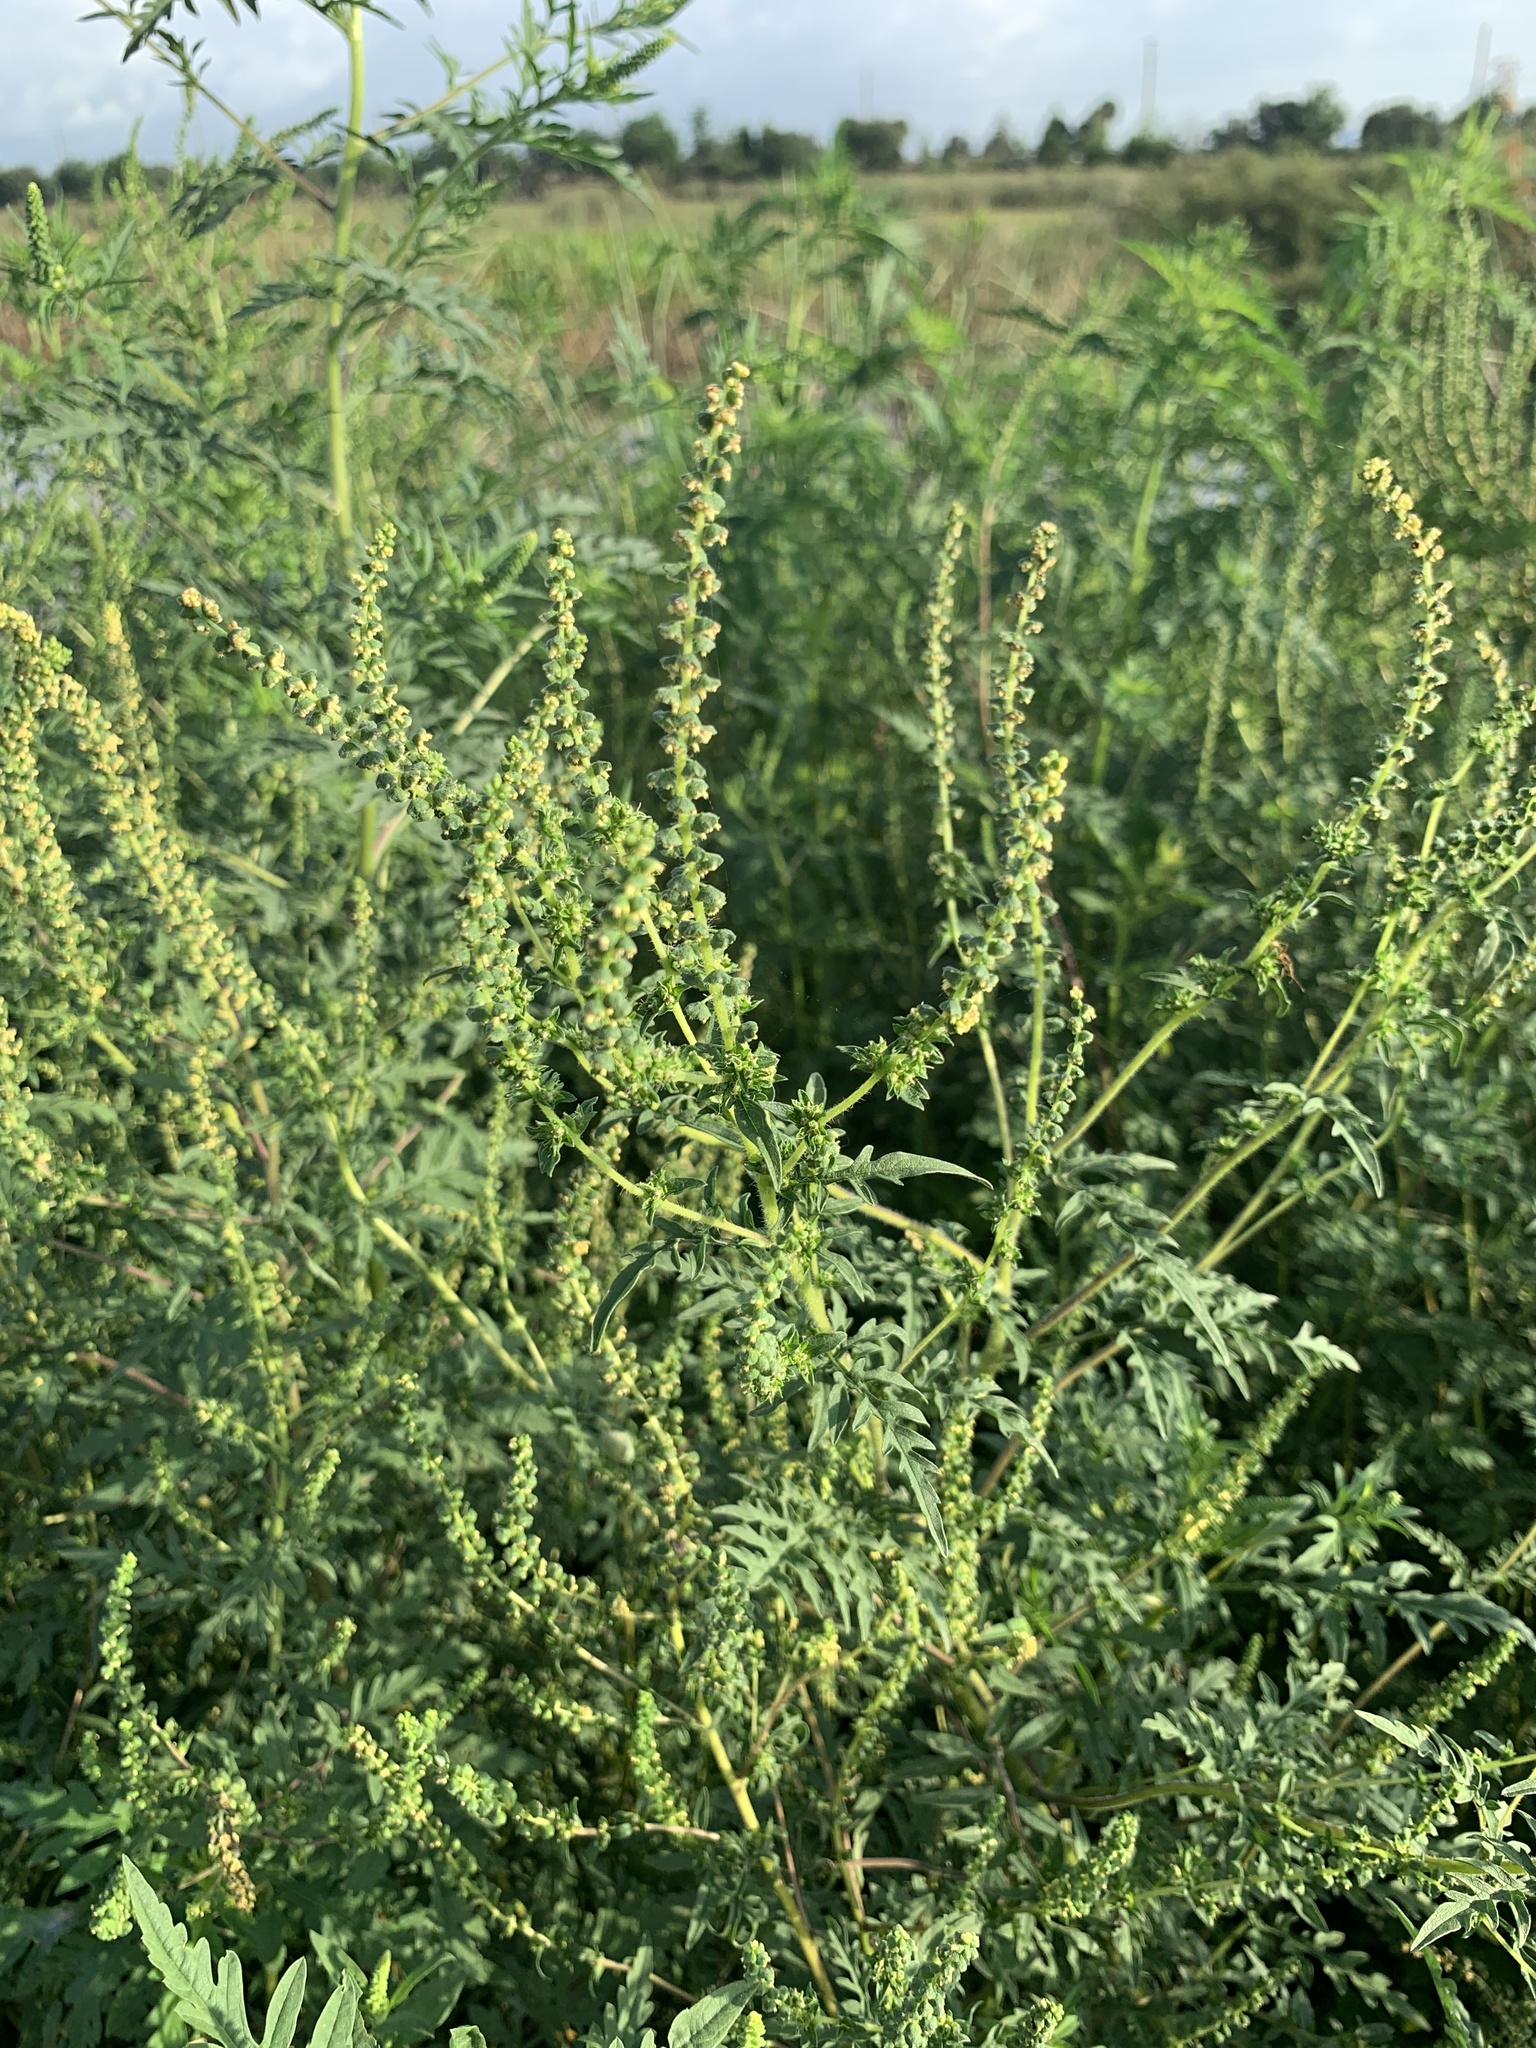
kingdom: Plantae
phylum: Tracheophyta
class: Magnoliopsida
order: Asterales
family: Asteraceae
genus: Ambrosia
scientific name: Ambrosia artemisiifolia
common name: Annual ragweed
